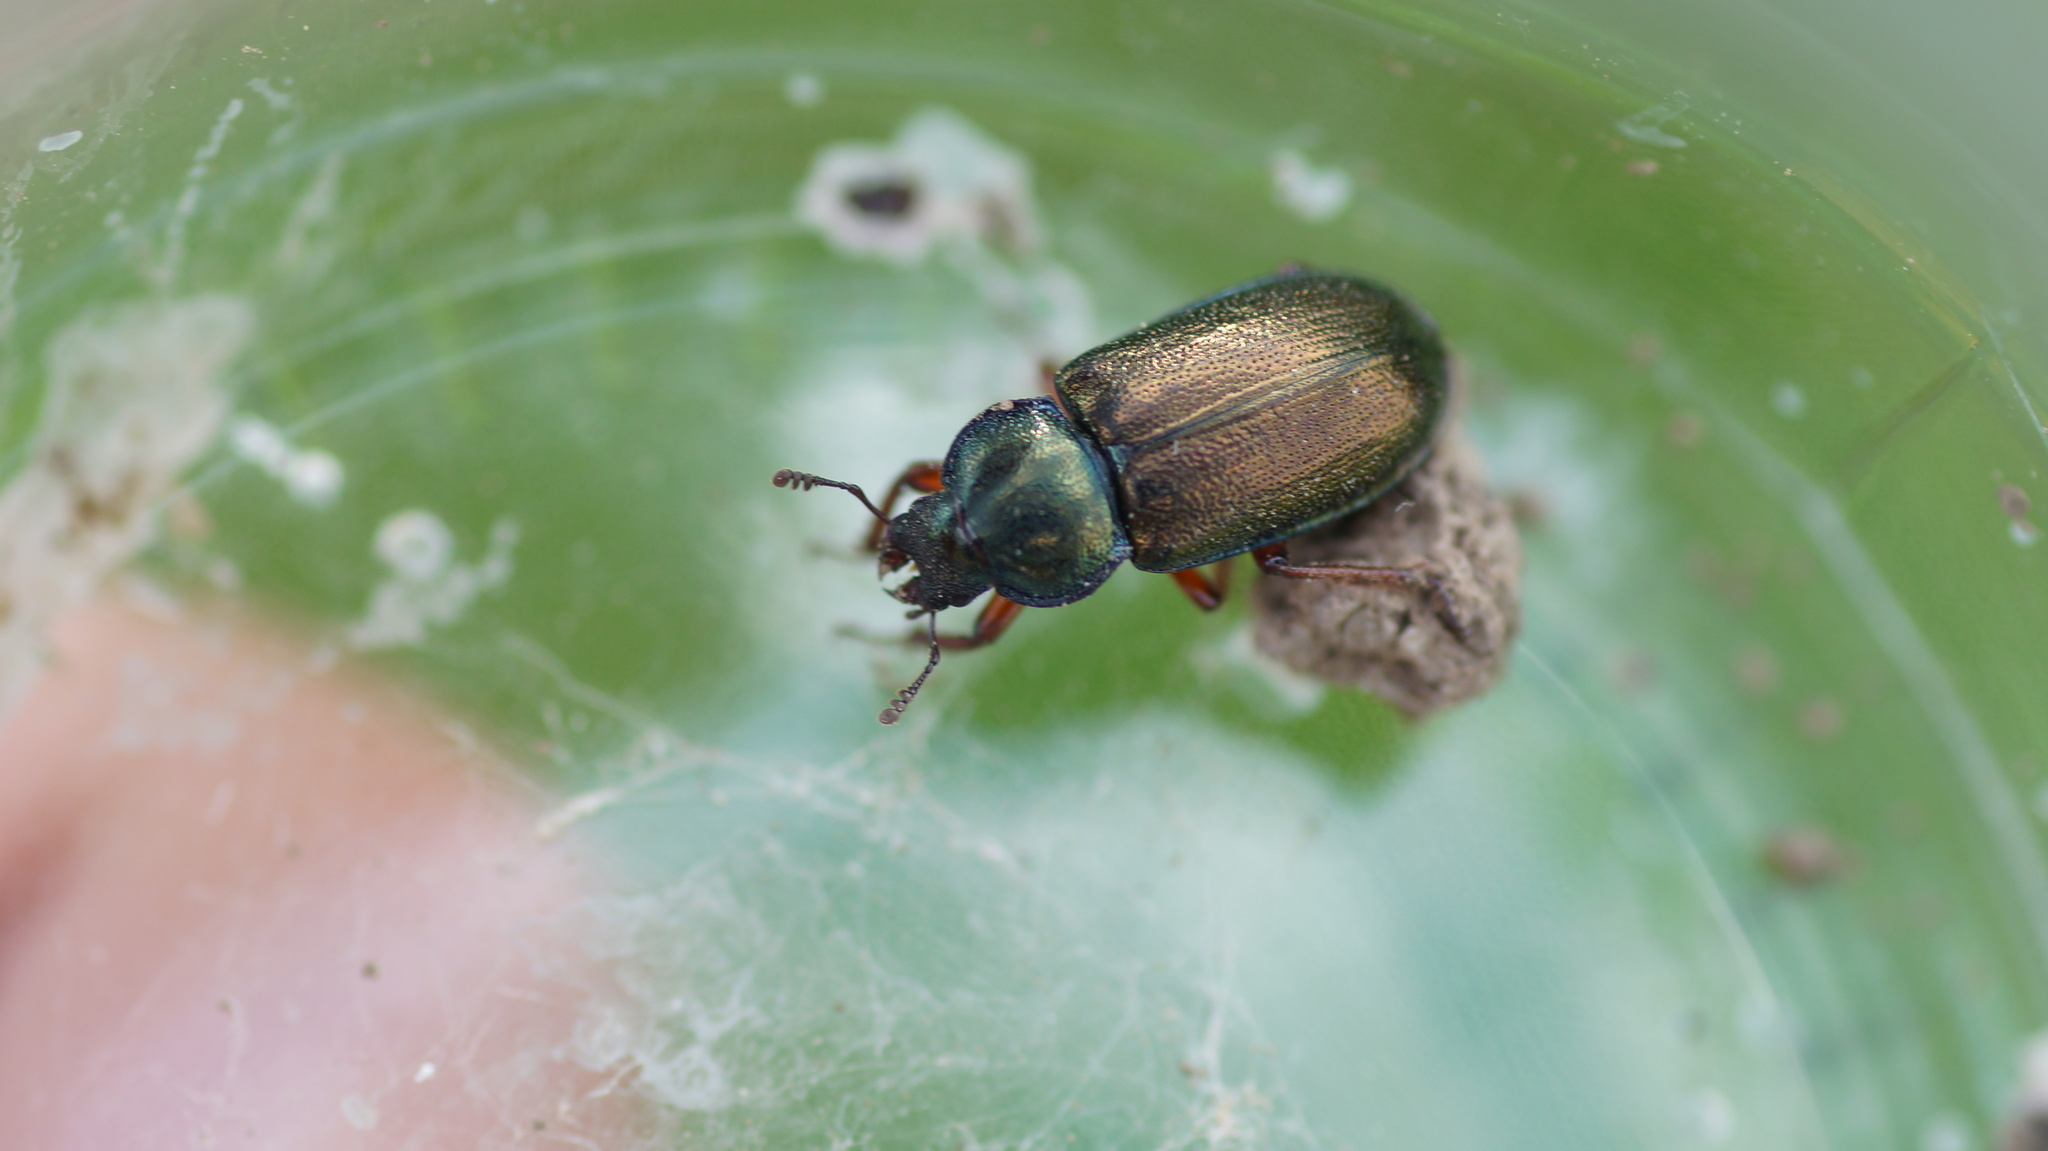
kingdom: Animalia
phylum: Arthropoda
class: Insecta
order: Coleoptera
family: Lucanidae
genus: Platycerus
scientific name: Platycerus caraboides
